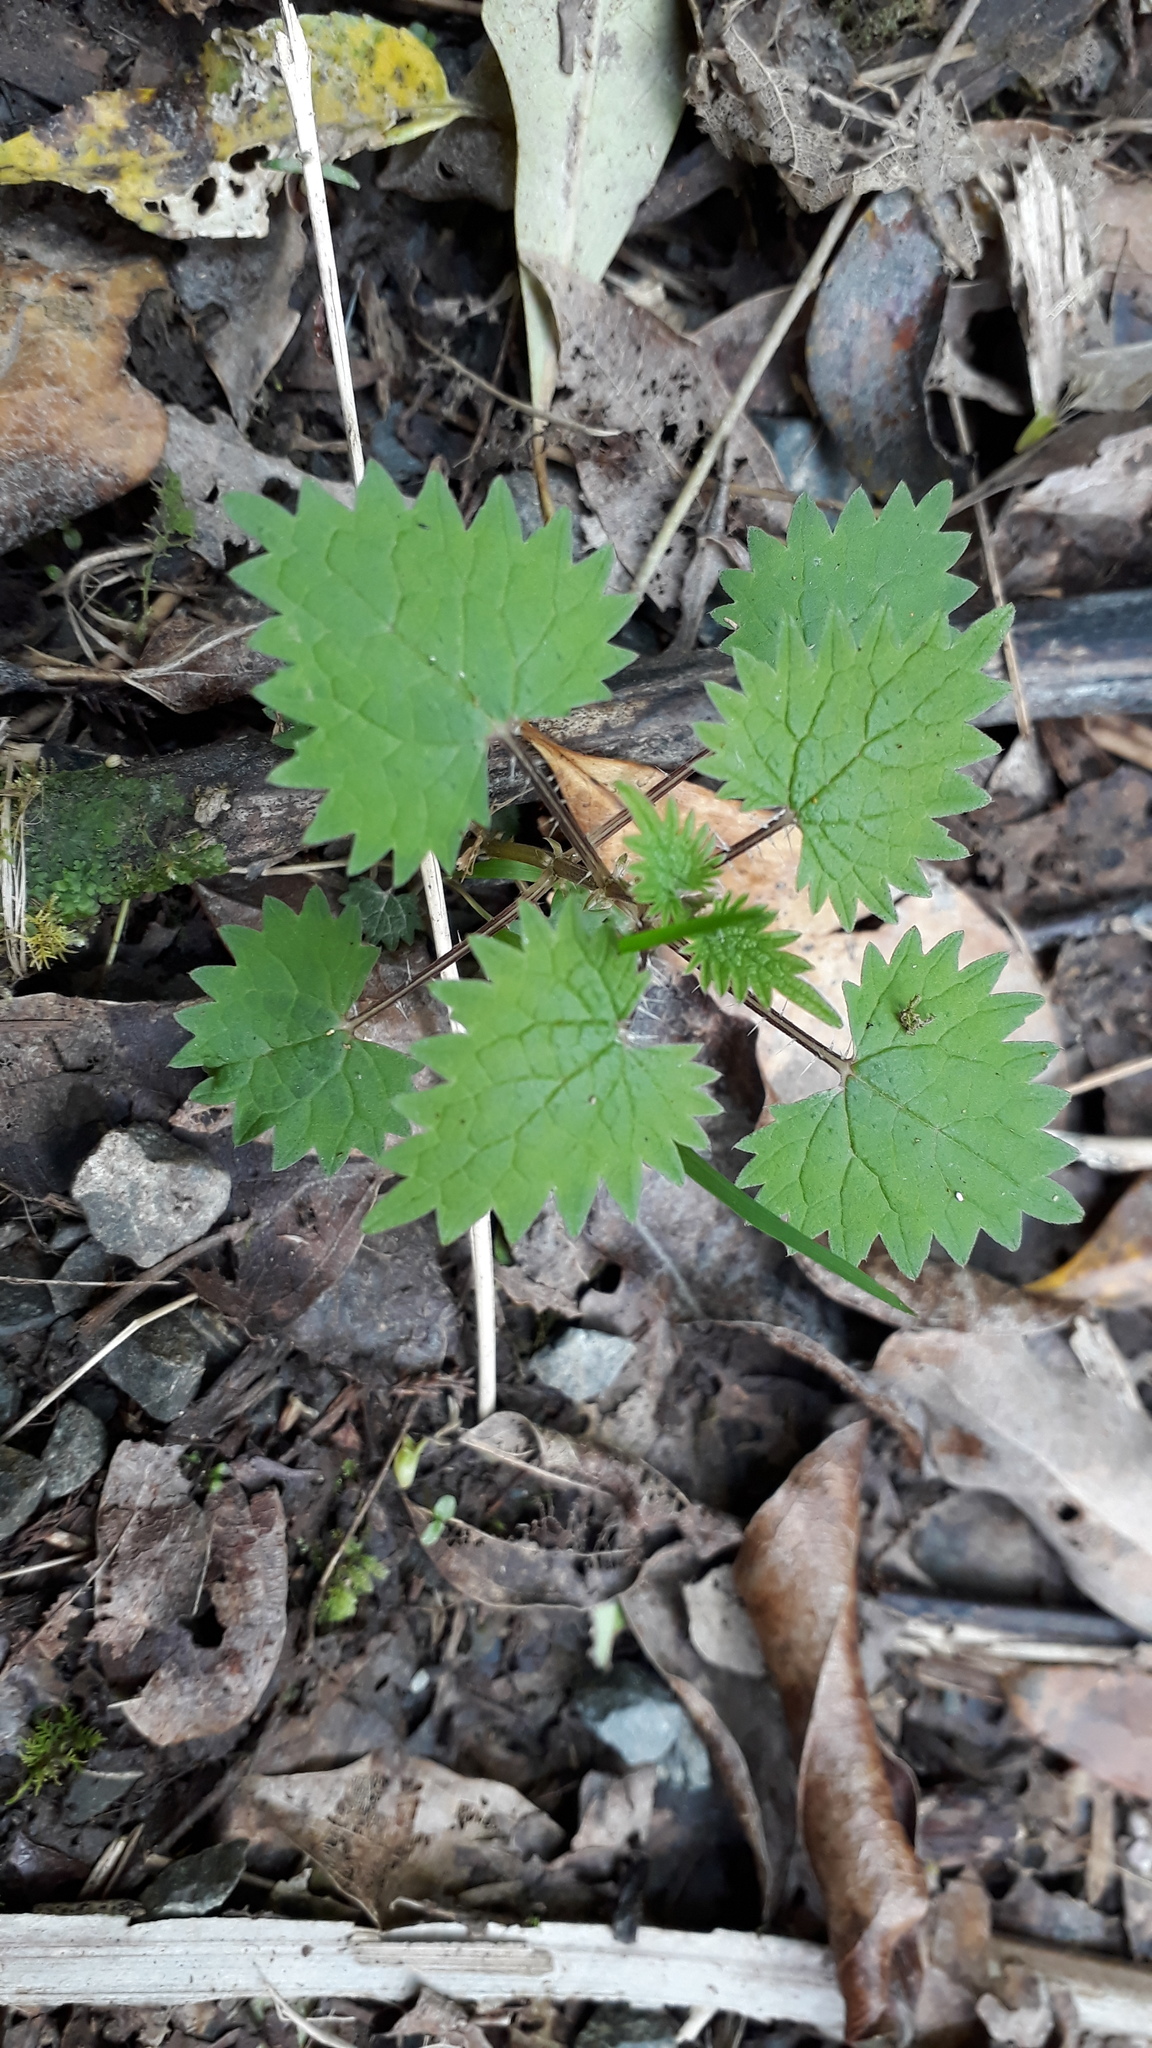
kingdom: Plantae
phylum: Tracheophyta
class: Magnoliopsida
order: Rosales
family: Urticaceae
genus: Urtica
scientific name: Urtica sykesii
